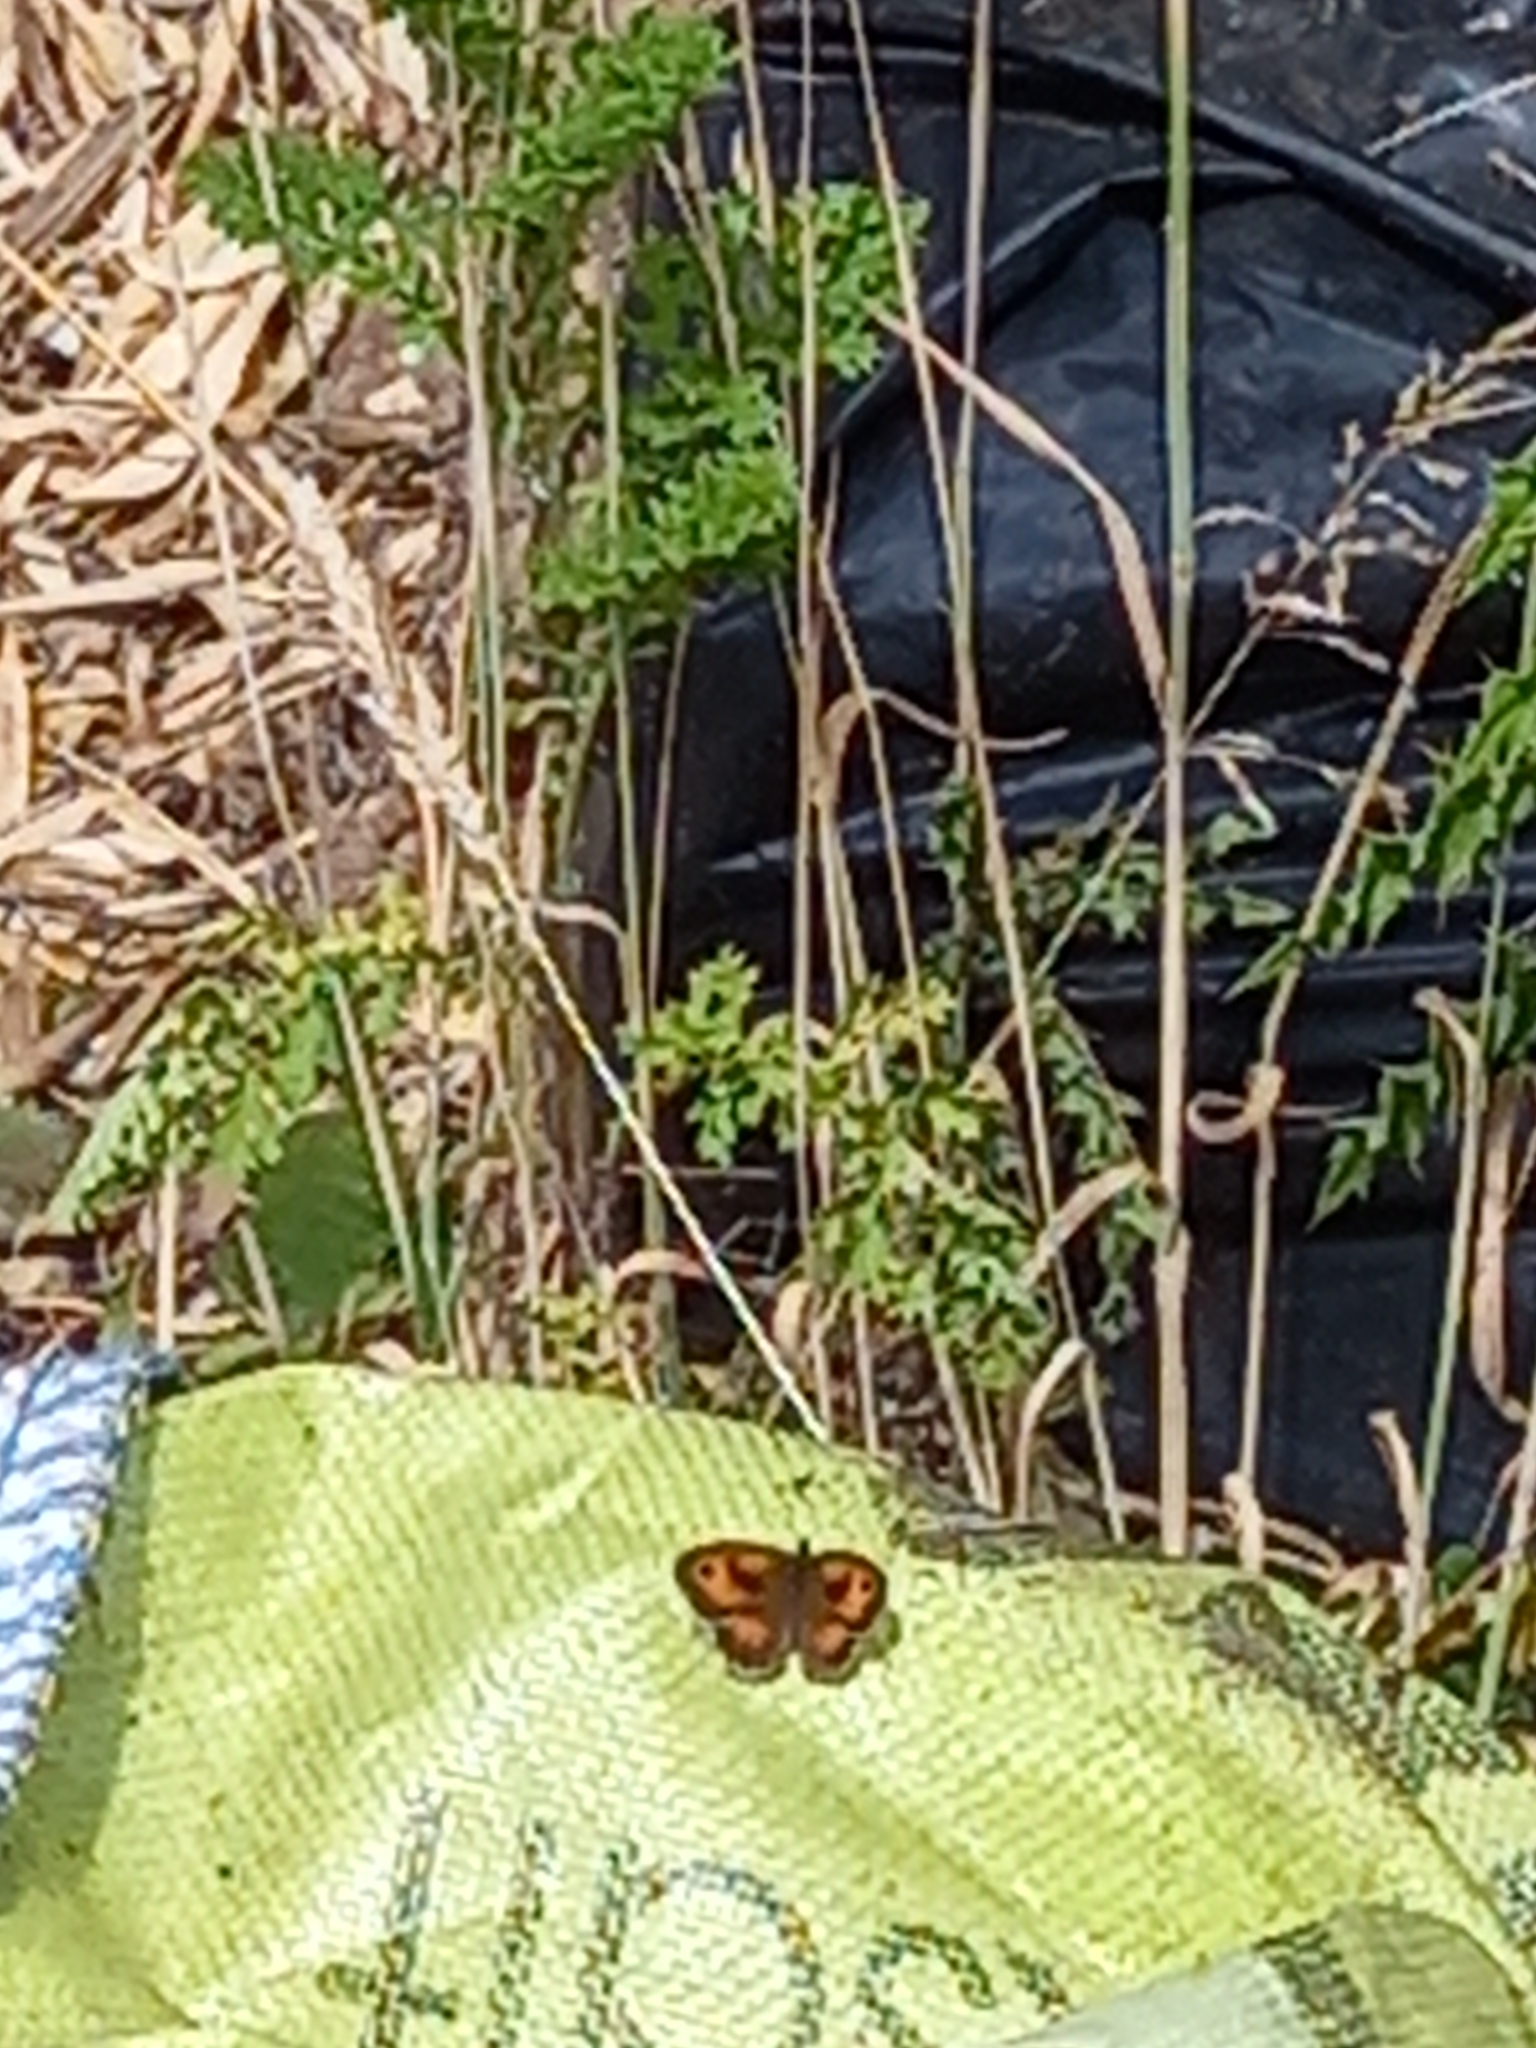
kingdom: Animalia
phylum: Arthropoda
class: Insecta
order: Lepidoptera
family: Nymphalidae
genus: Pyronia
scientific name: Pyronia tithonus
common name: Gatekeeper
